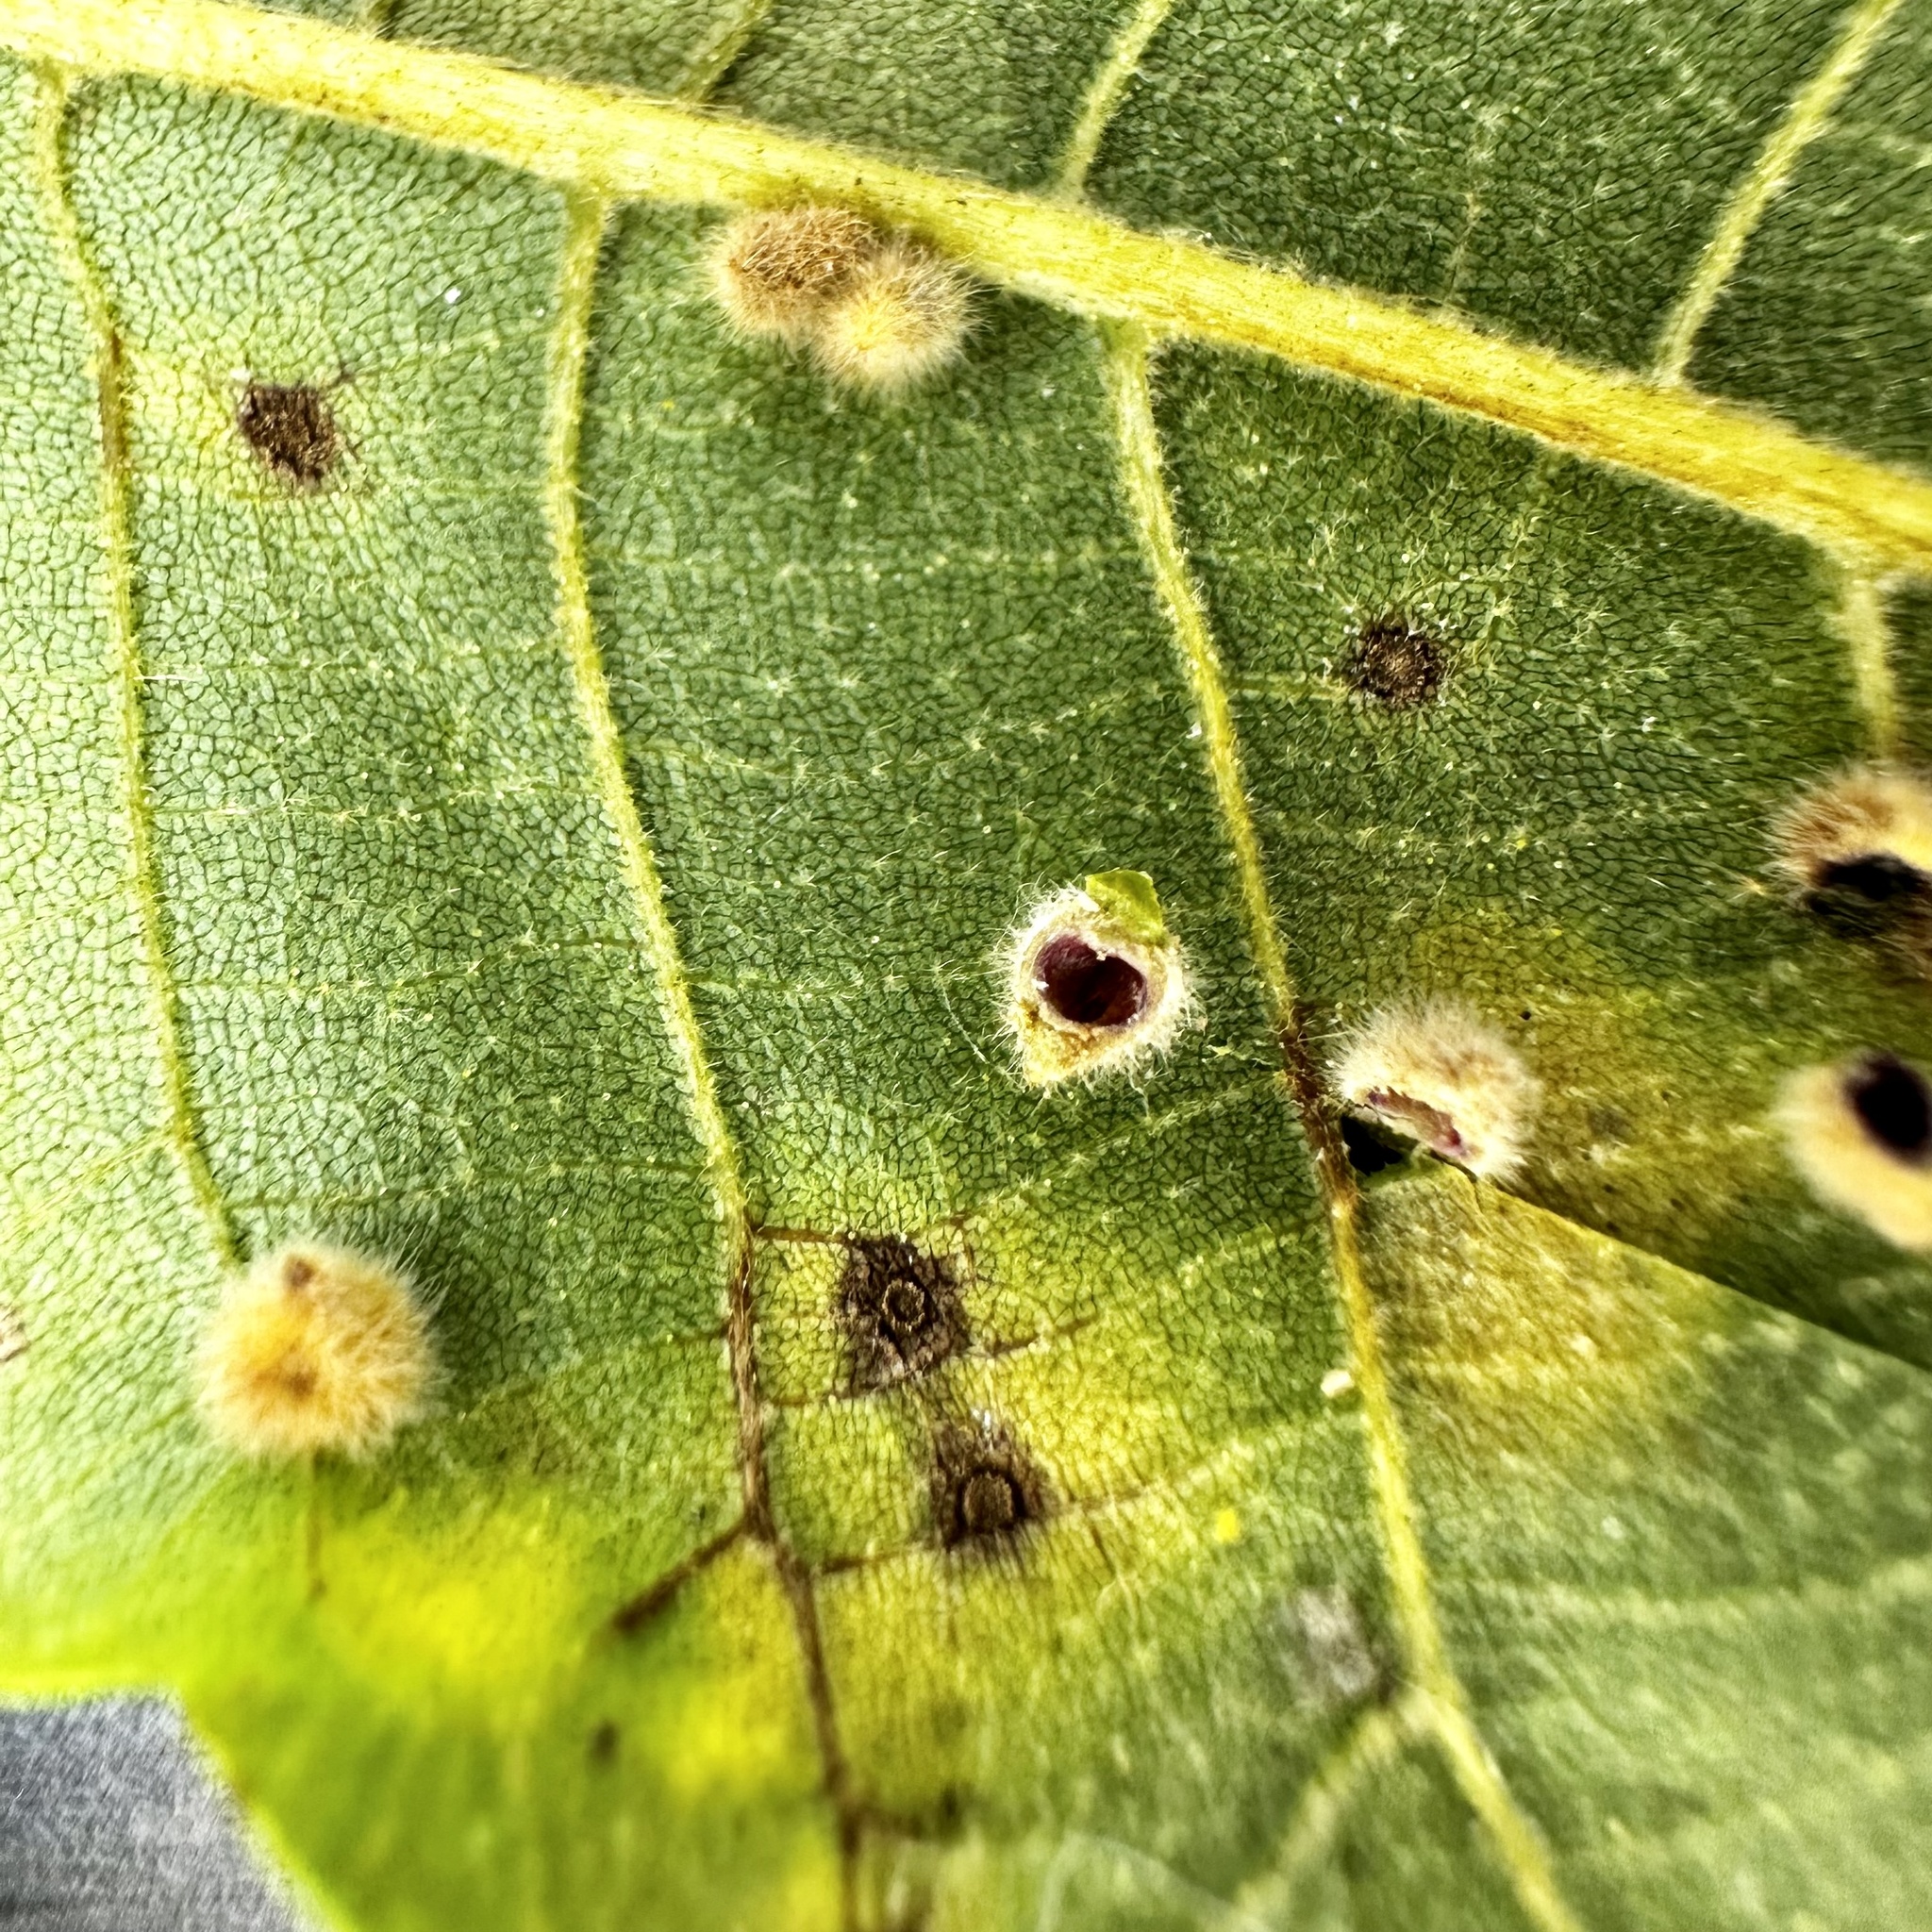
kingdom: Animalia
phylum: Arthropoda
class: Insecta
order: Diptera
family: Cecidomyiidae
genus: Caryomyia
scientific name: Caryomyia purpurea
